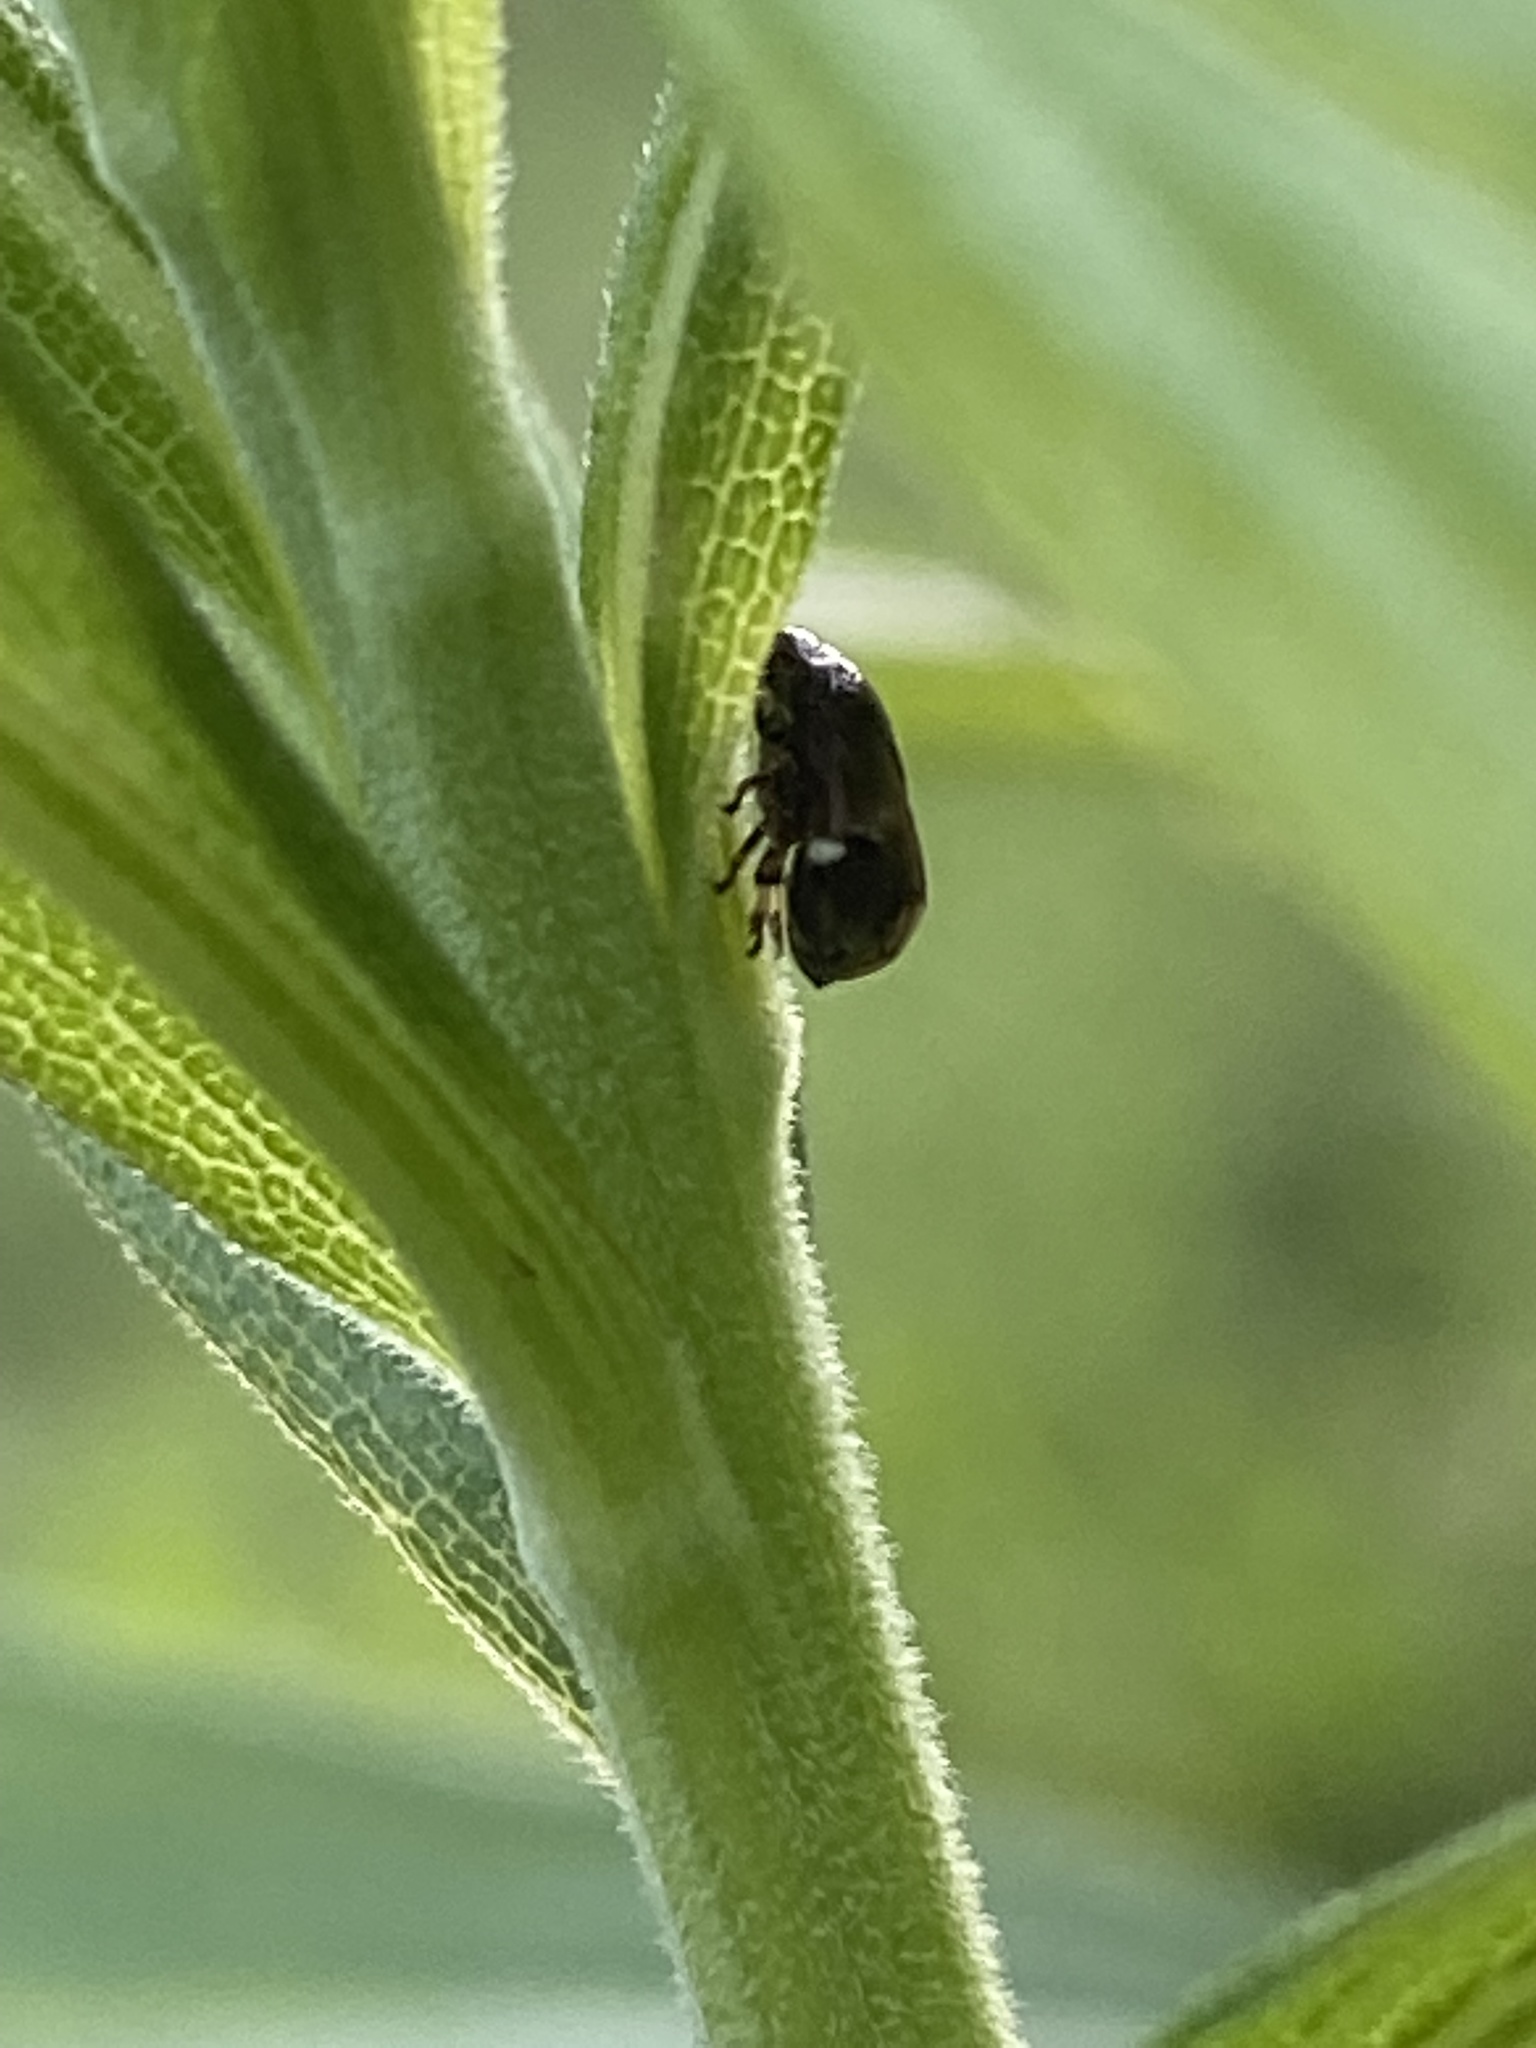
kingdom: Animalia
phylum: Arthropoda
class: Insecta
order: Hemiptera
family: Clastopteridae
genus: Clastoptera
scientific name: Clastoptera xanthocephala
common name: Sunflower spittlebug
